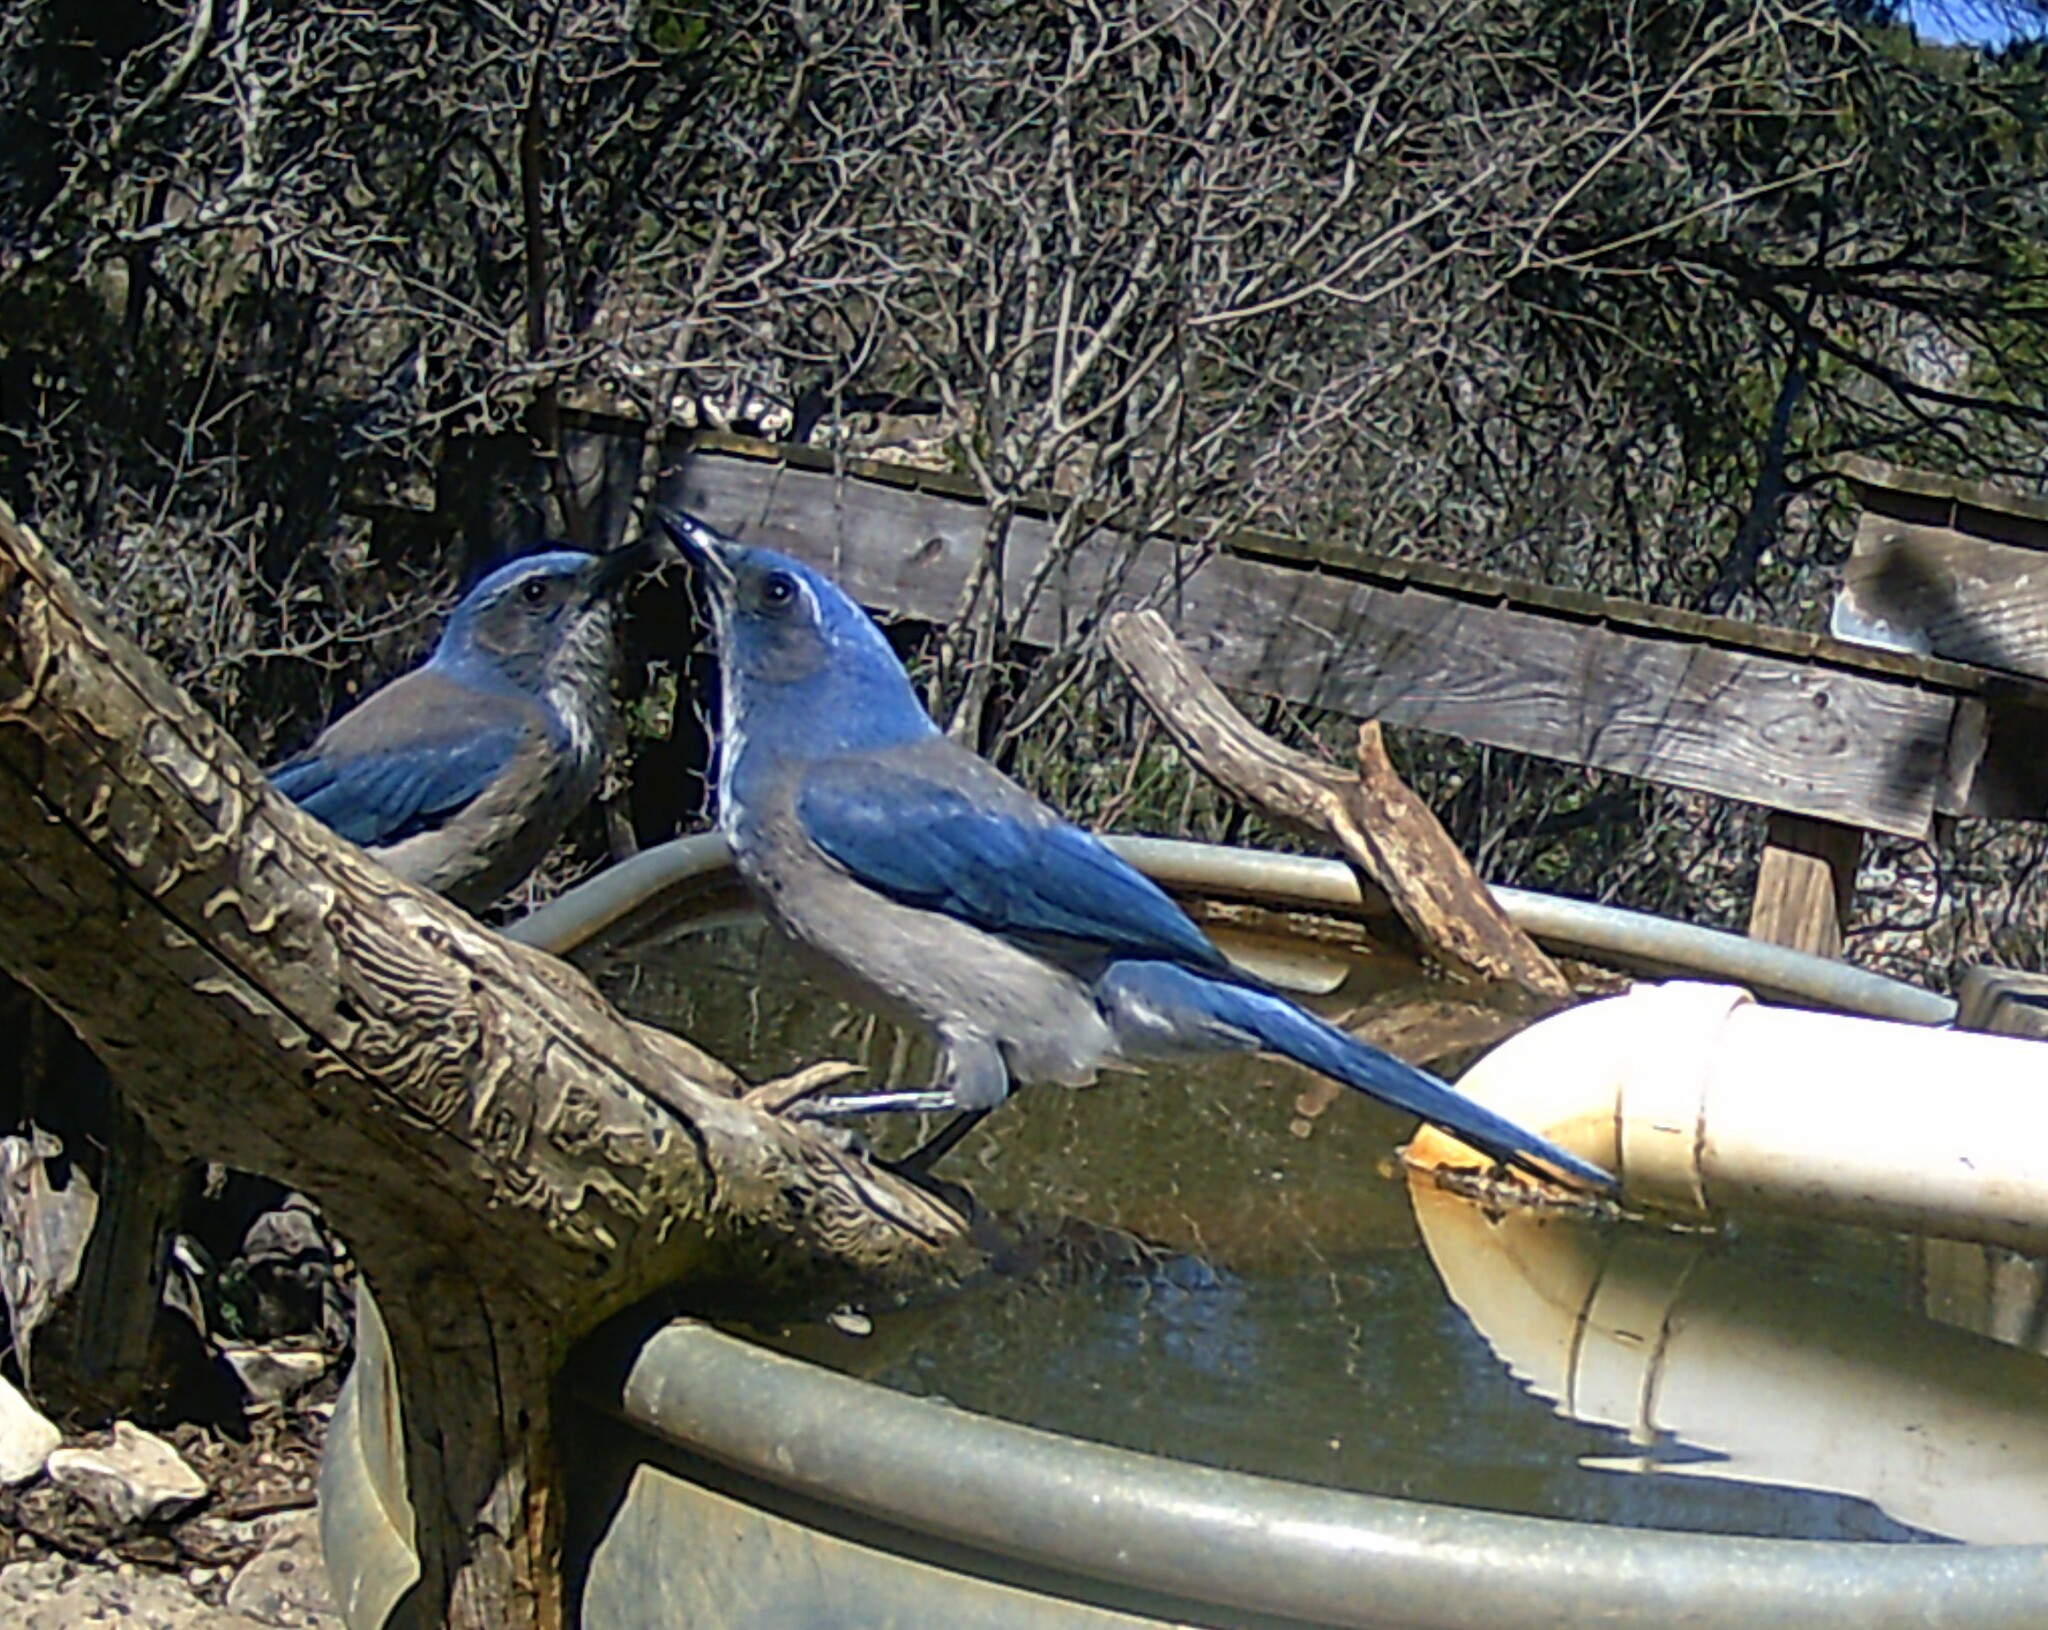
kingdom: Animalia
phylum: Chordata
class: Aves
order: Passeriformes
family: Corvidae
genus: Aphelocoma
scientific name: Aphelocoma woodhouseii
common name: Woodhouse's scrub-jay
